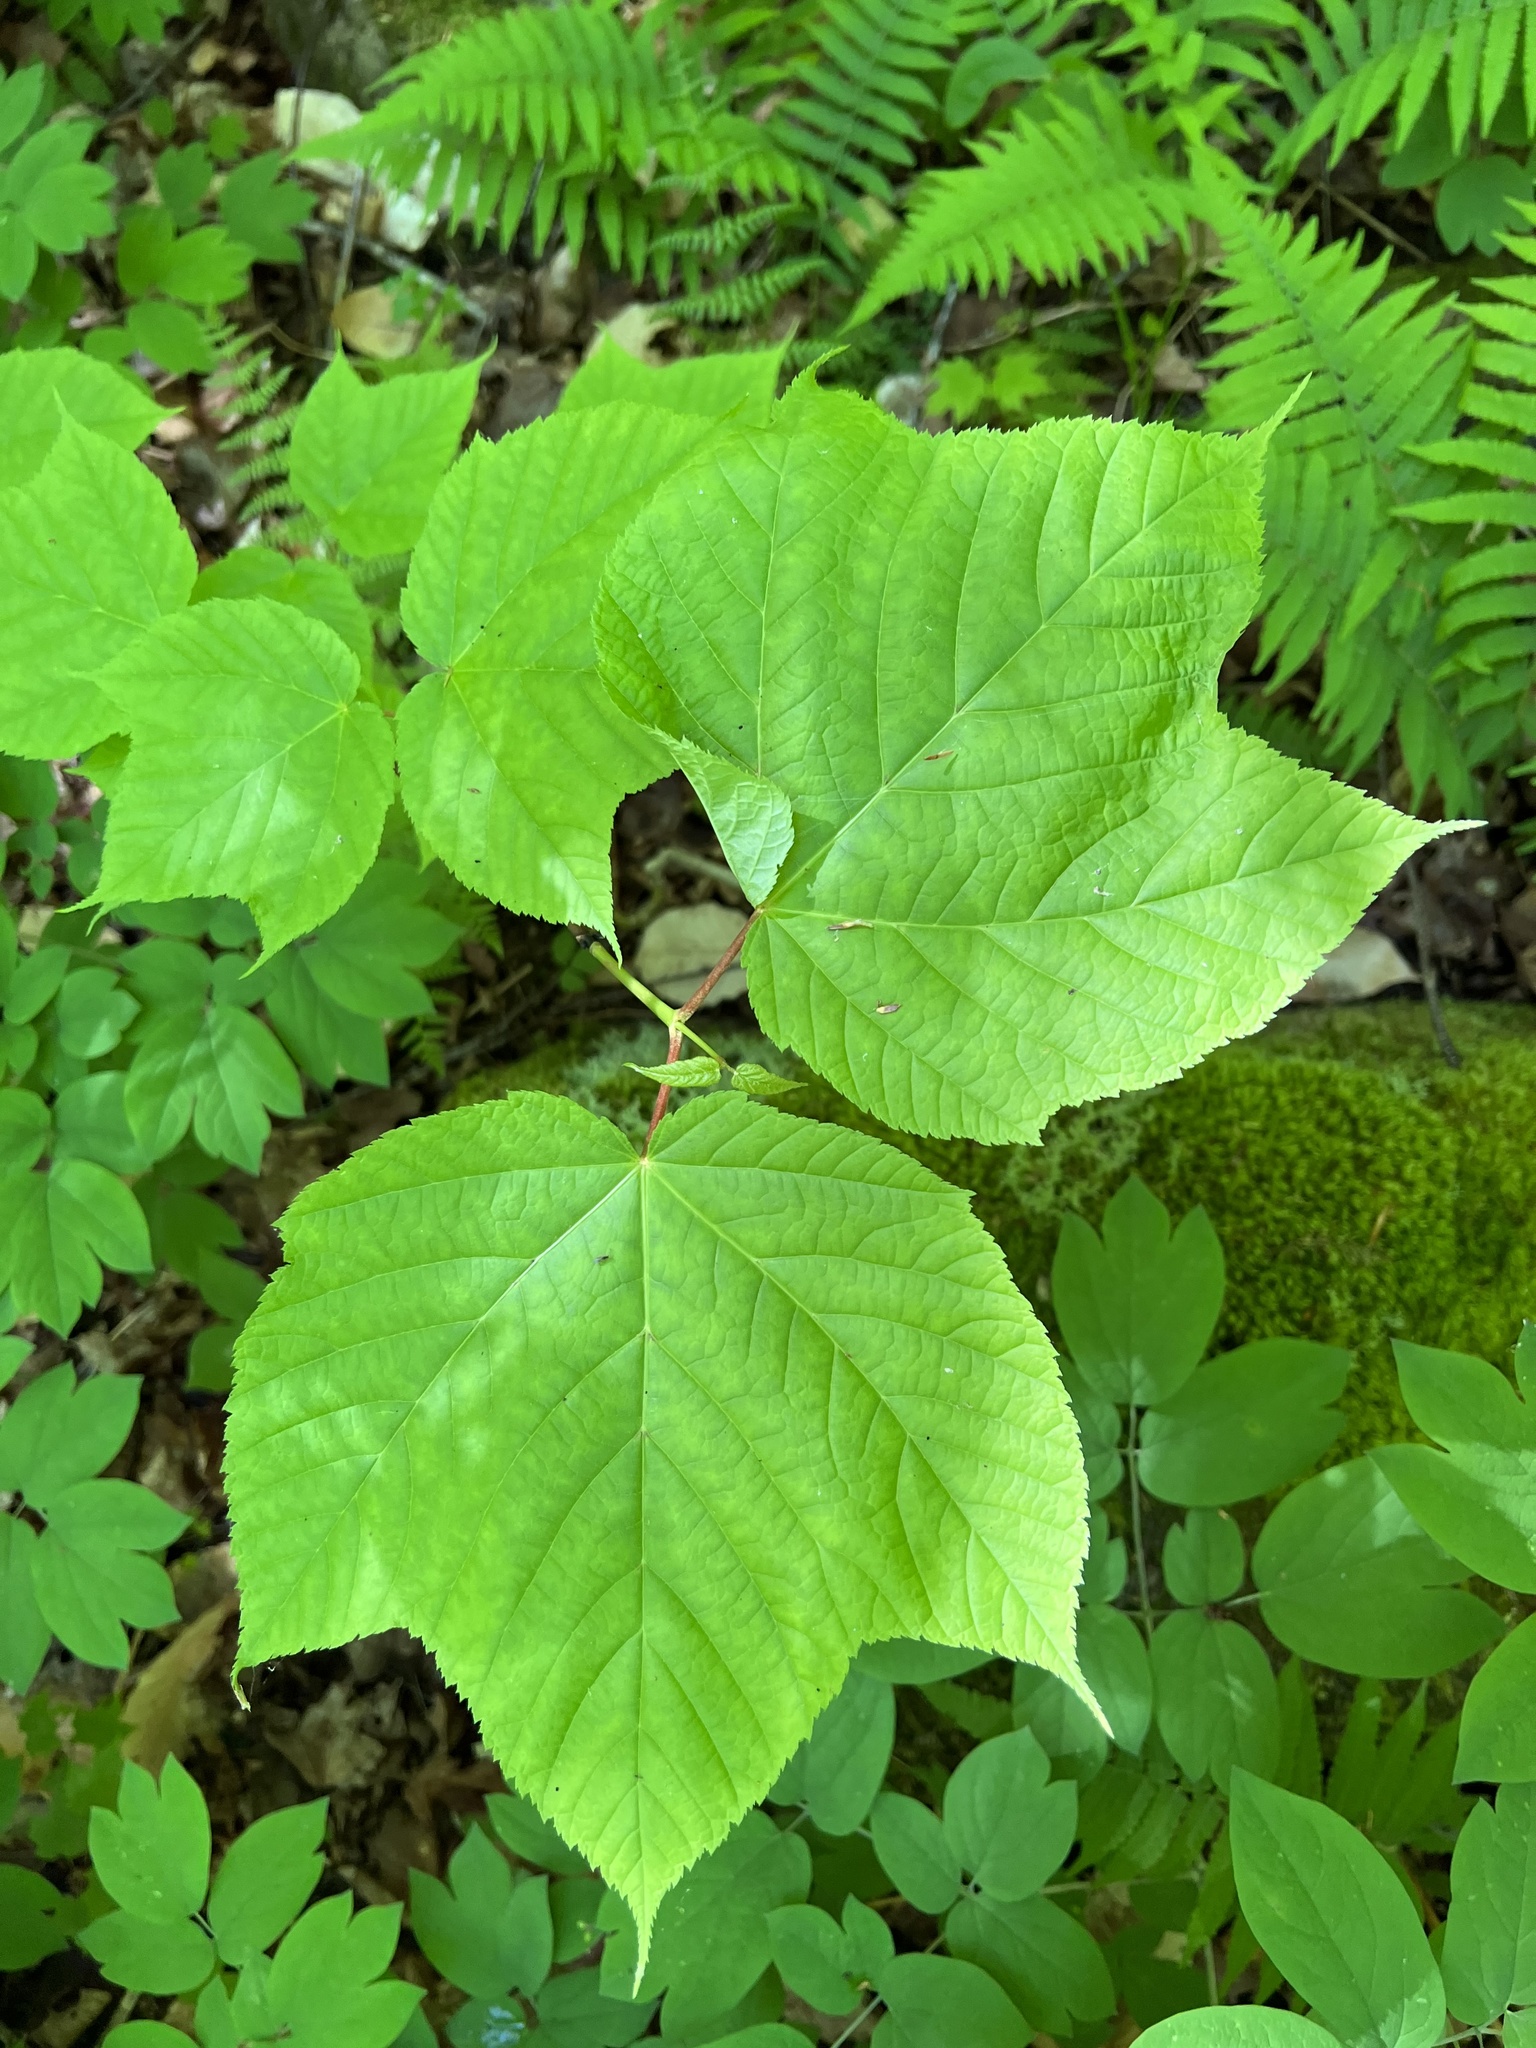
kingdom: Plantae
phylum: Tracheophyta
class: Magnoliopsida
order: Sapindales
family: Sapindaceae
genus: Acer
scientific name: Acer pensylvanicum
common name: Moosewood
